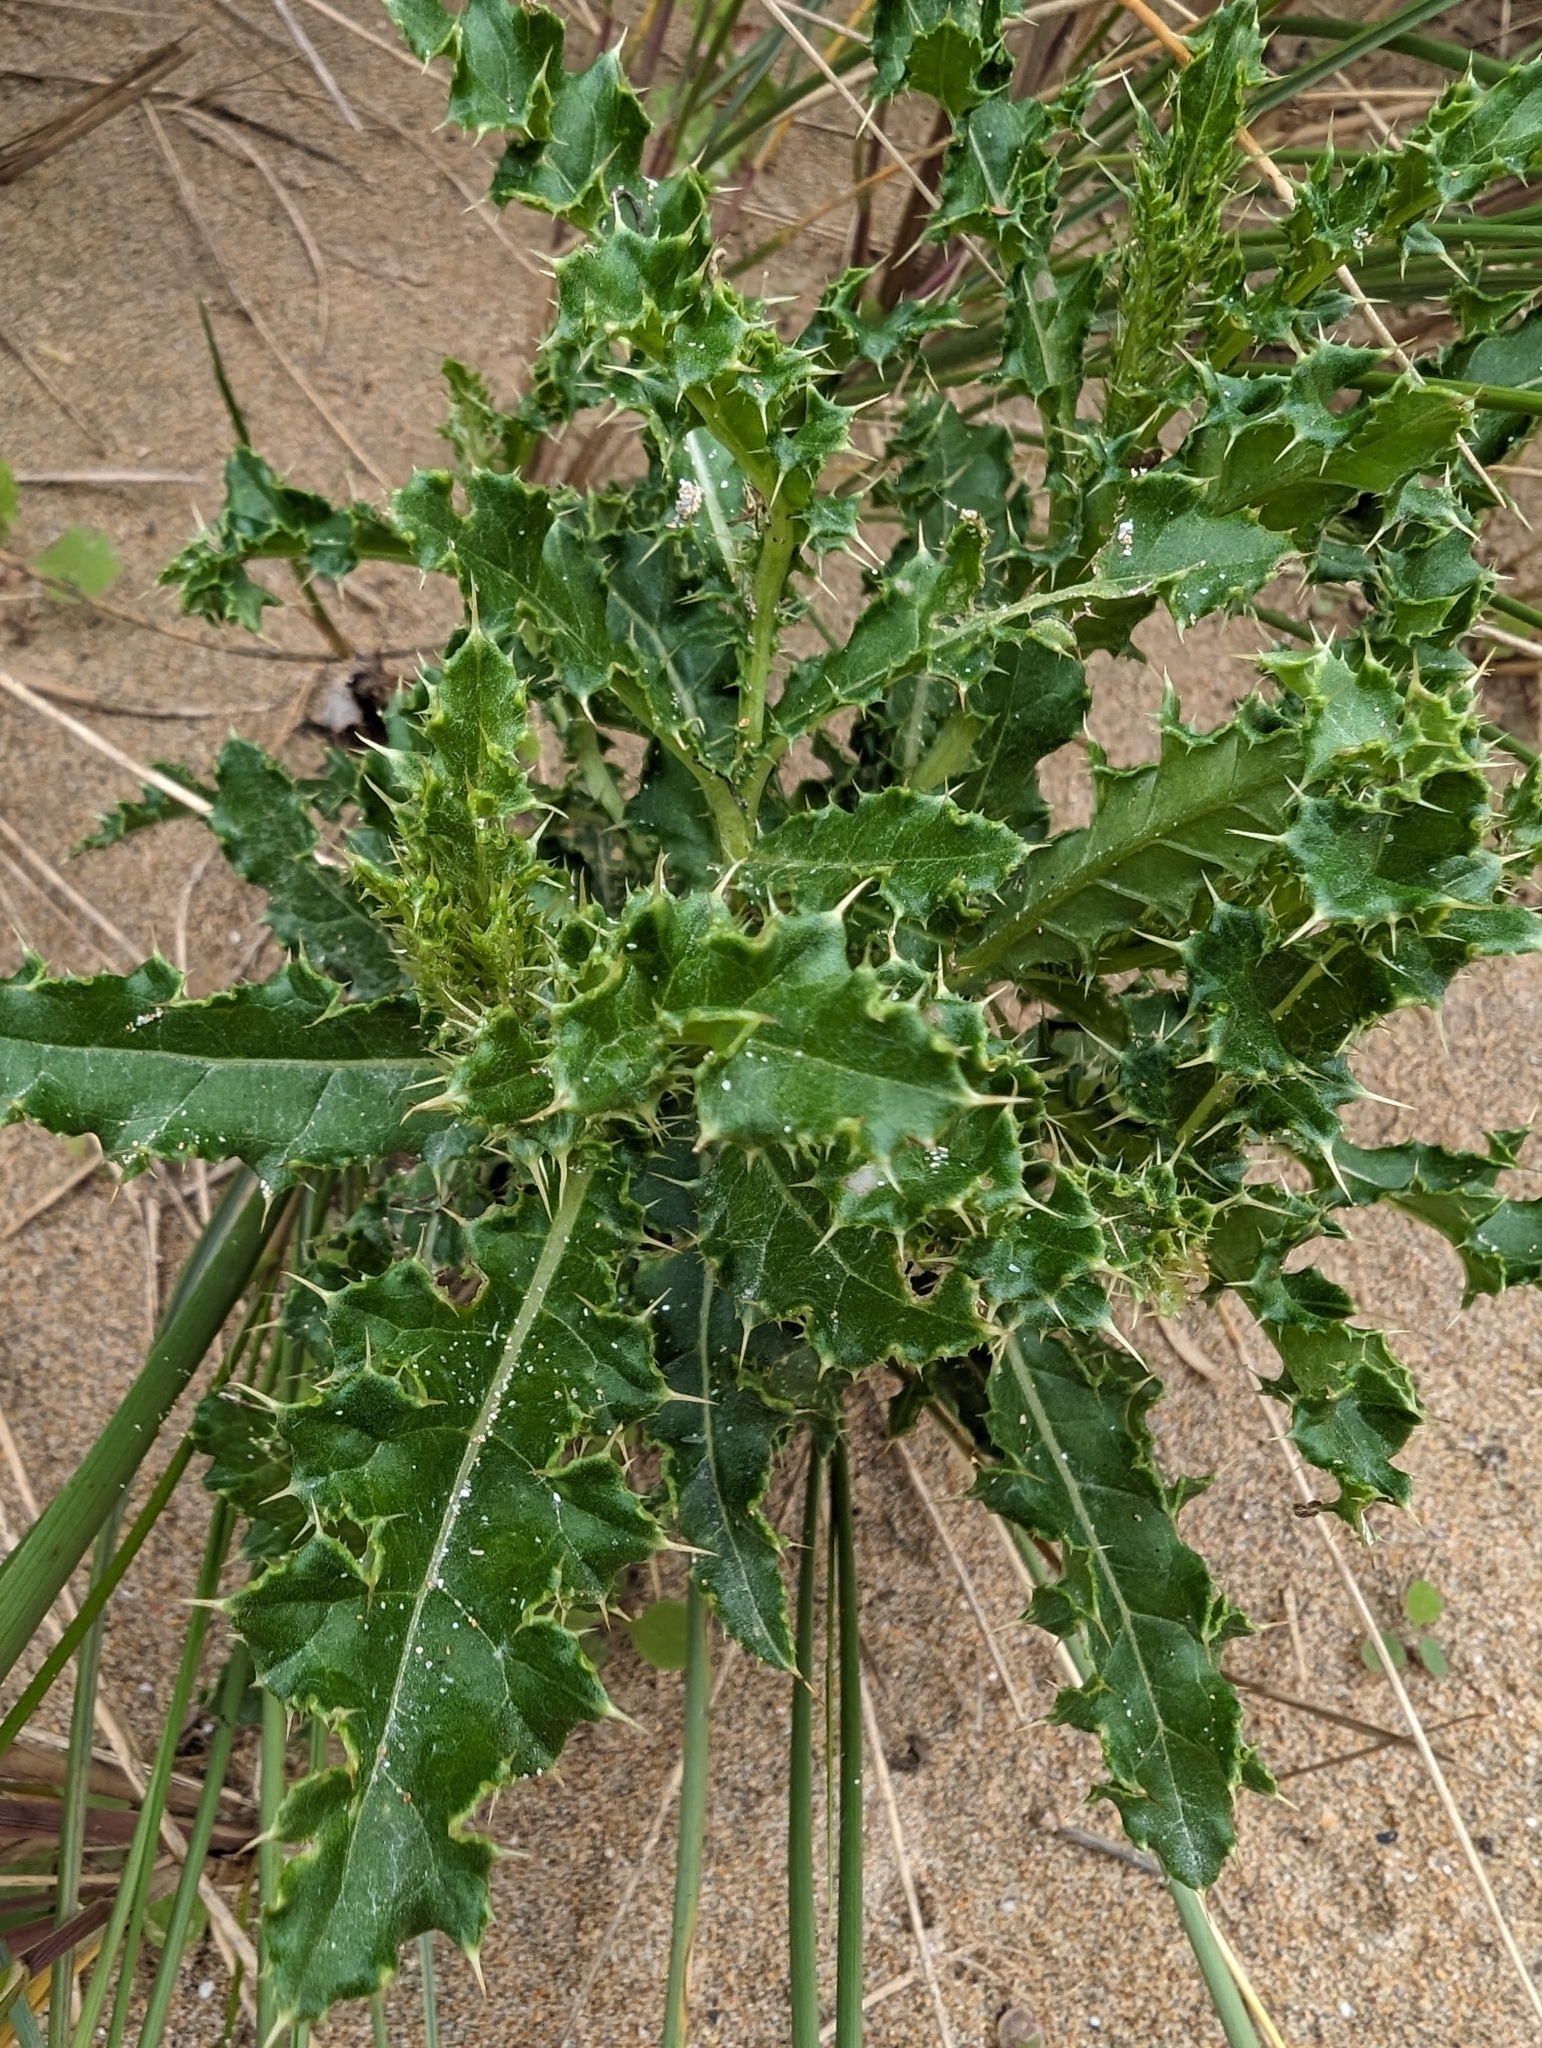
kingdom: Plantae
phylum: Tracheophyta
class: Magnoliopsida
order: Asterales
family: Asteraceae
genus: Cirsium
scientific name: Cirsium arvense
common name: Creeping thistle
